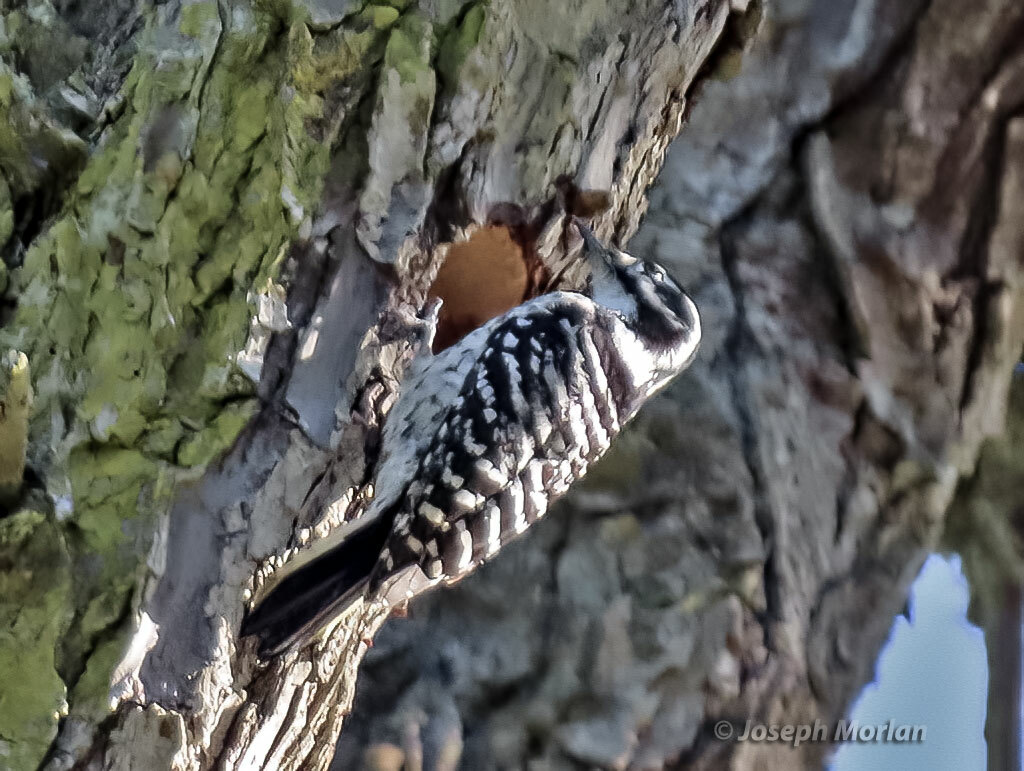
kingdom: Animalia
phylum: Chordata
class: Aves
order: Piciformes
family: Picidae
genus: Dryobates
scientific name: Dryobates nuttallii
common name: Nuttall's woodpecker
